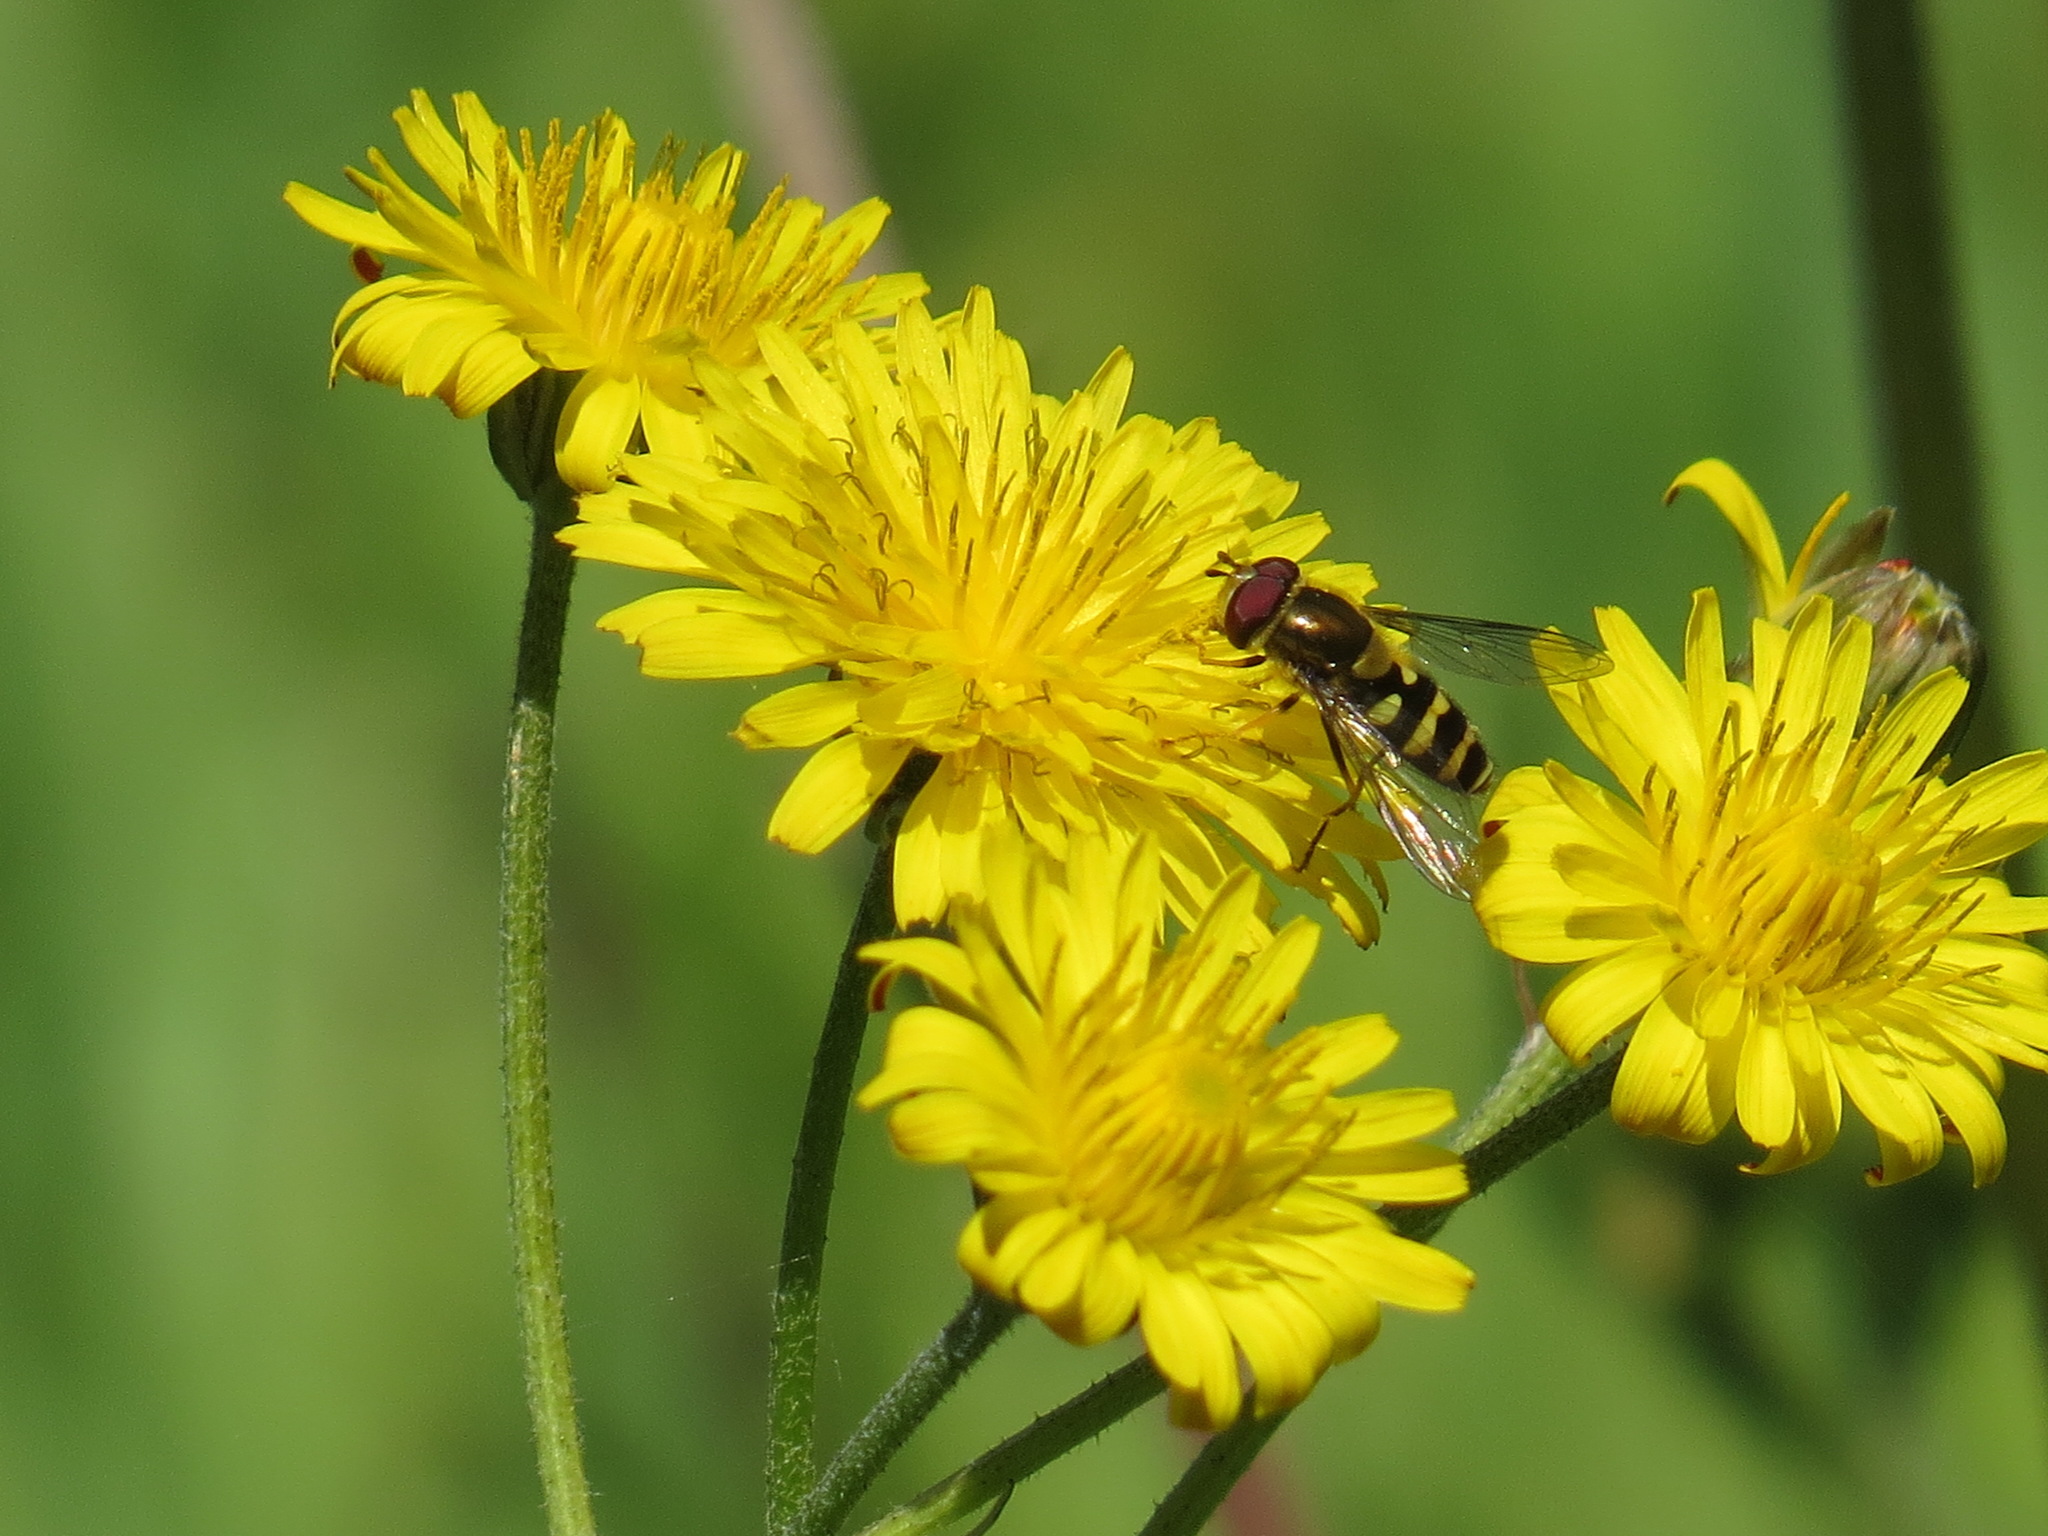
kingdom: Animalia
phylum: Arthropoda
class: Insecta
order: Diptera
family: Syrphidae
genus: Syrphus
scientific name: Syrphus opinator
